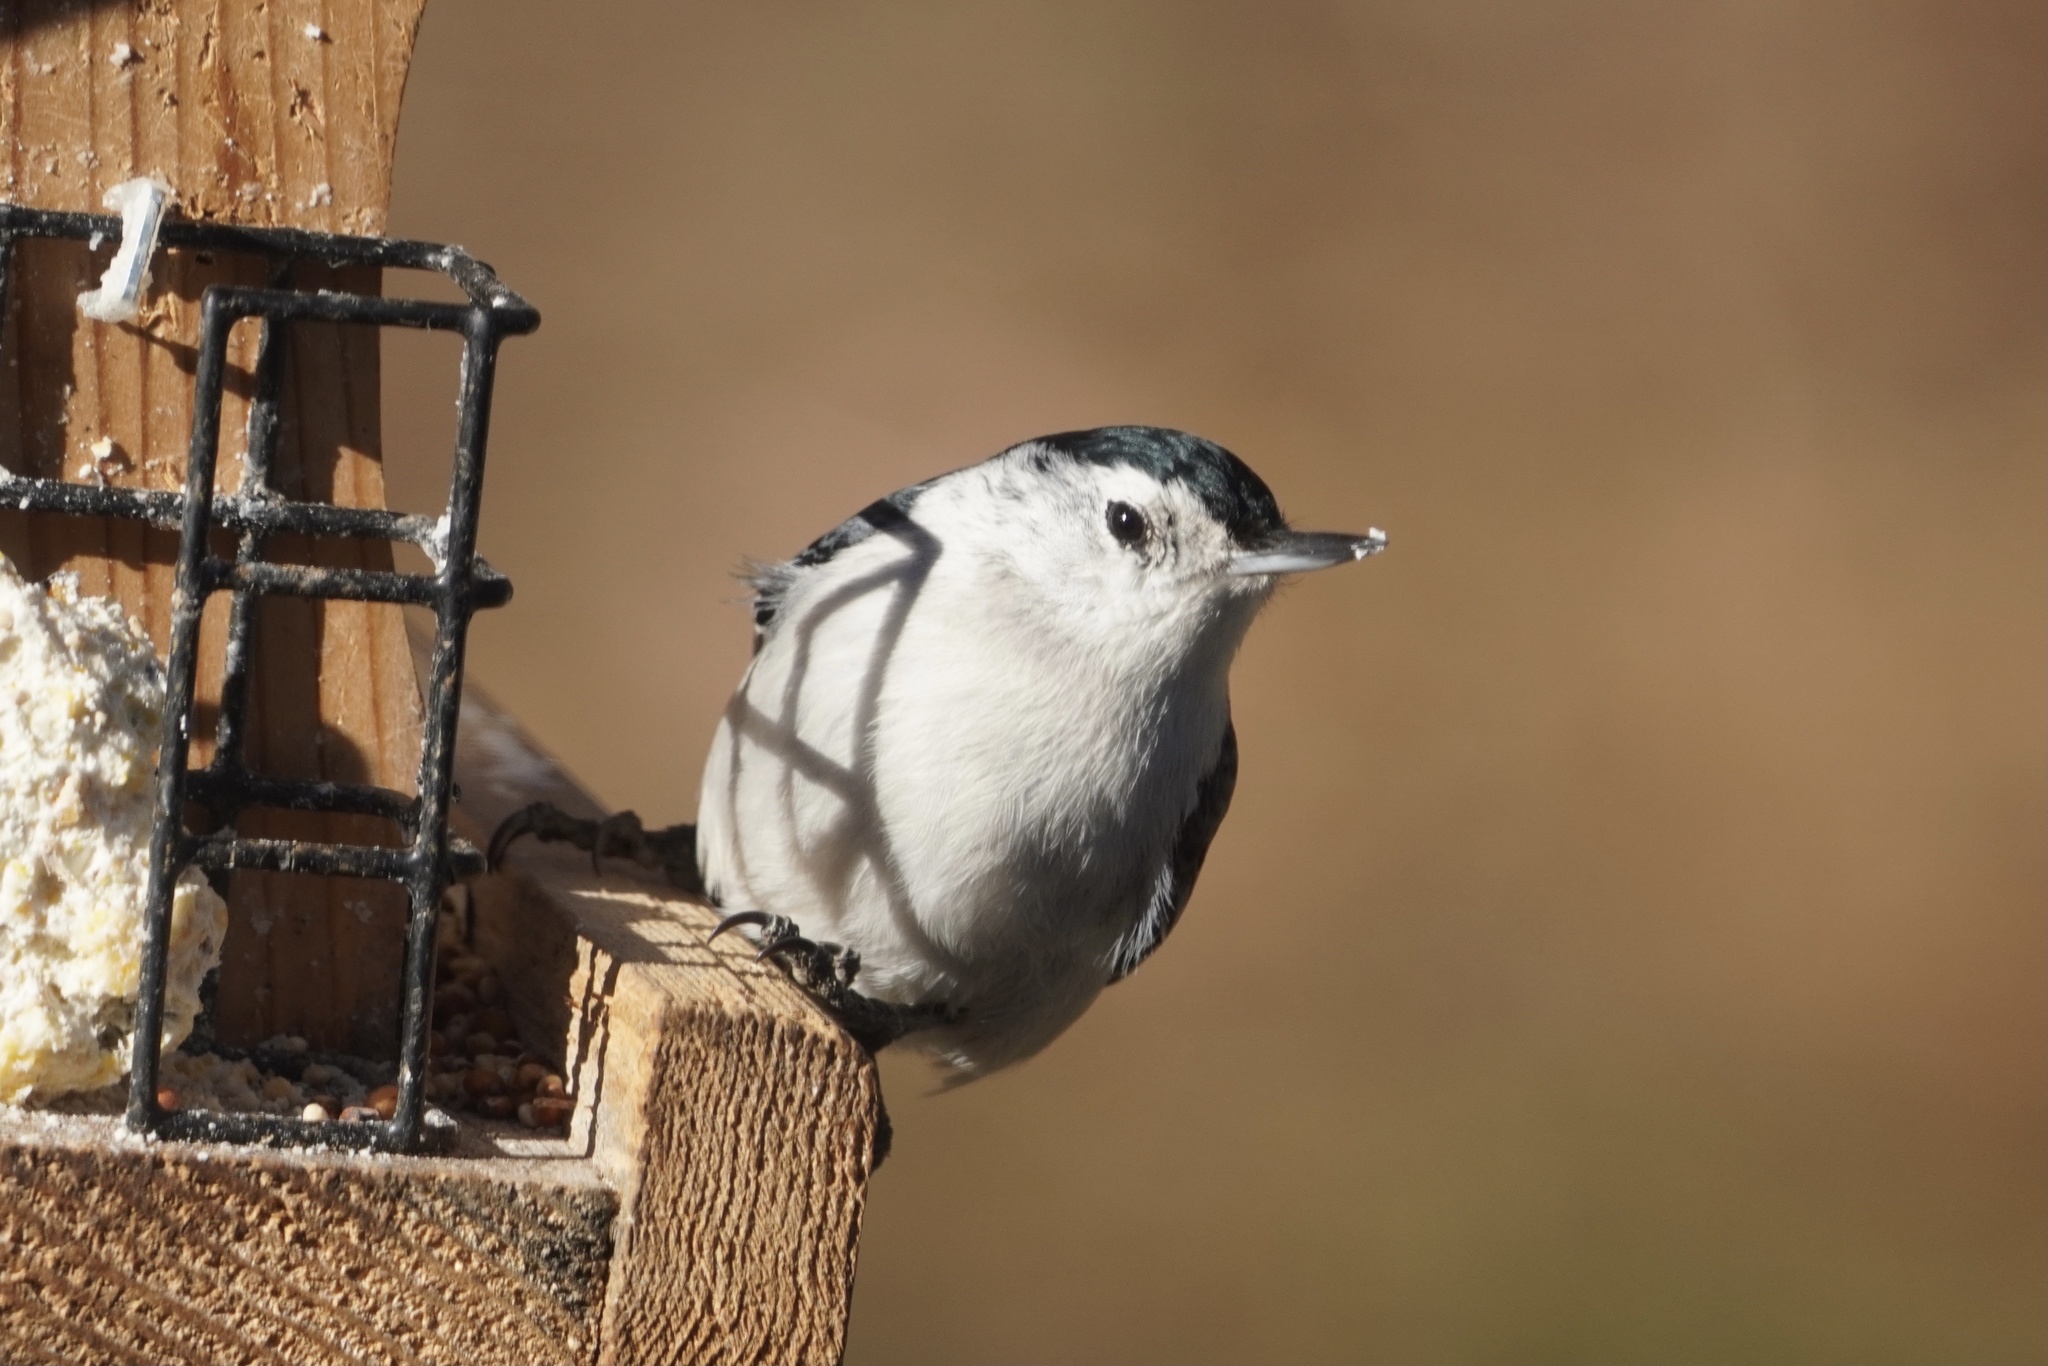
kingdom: Animalia
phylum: Chordata
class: Aves
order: Passeriformes
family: Sittidae
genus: Sitta
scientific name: Sitta carolinensis
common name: White-breasted nuthatch
